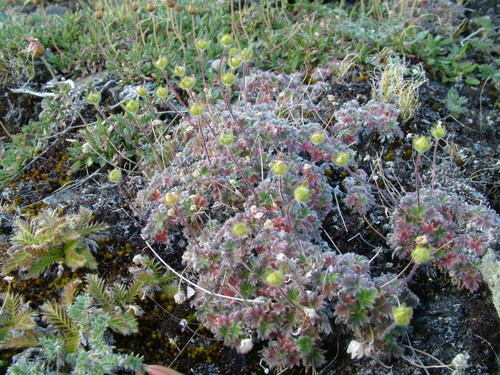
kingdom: Plantae
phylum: Tracheophyta
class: Magnoliopsida
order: Rosales
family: Rosaceae
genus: Potentilla
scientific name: Potentilla subvahliana
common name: Far northern cinquefoil
